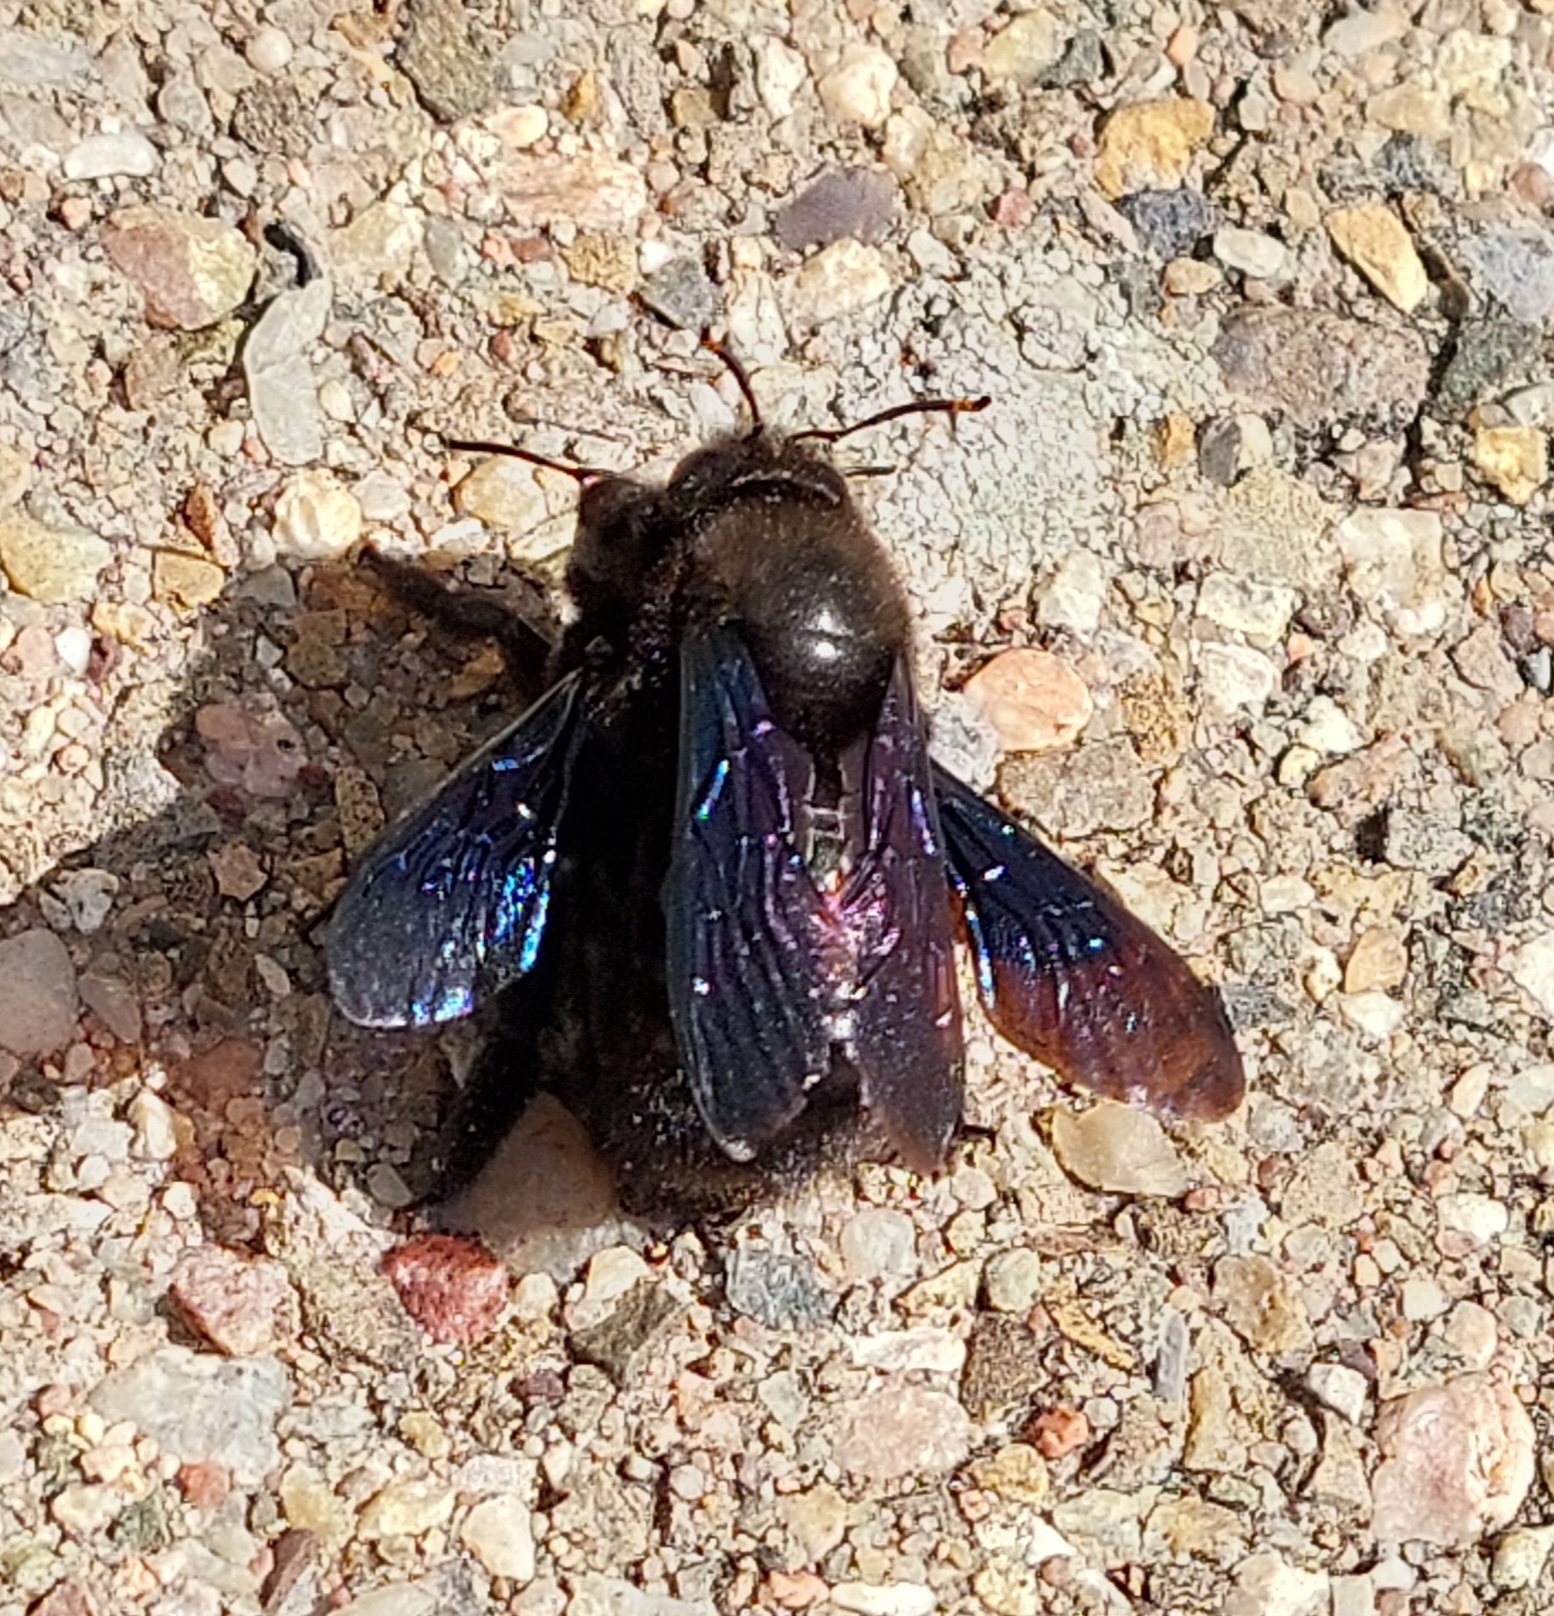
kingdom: Animalia
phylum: Arthropoda
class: Insecta
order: Hymenoptera
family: Apidae
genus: Xylocopa
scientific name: Xylocopa violacea
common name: Violet carpenter bee
